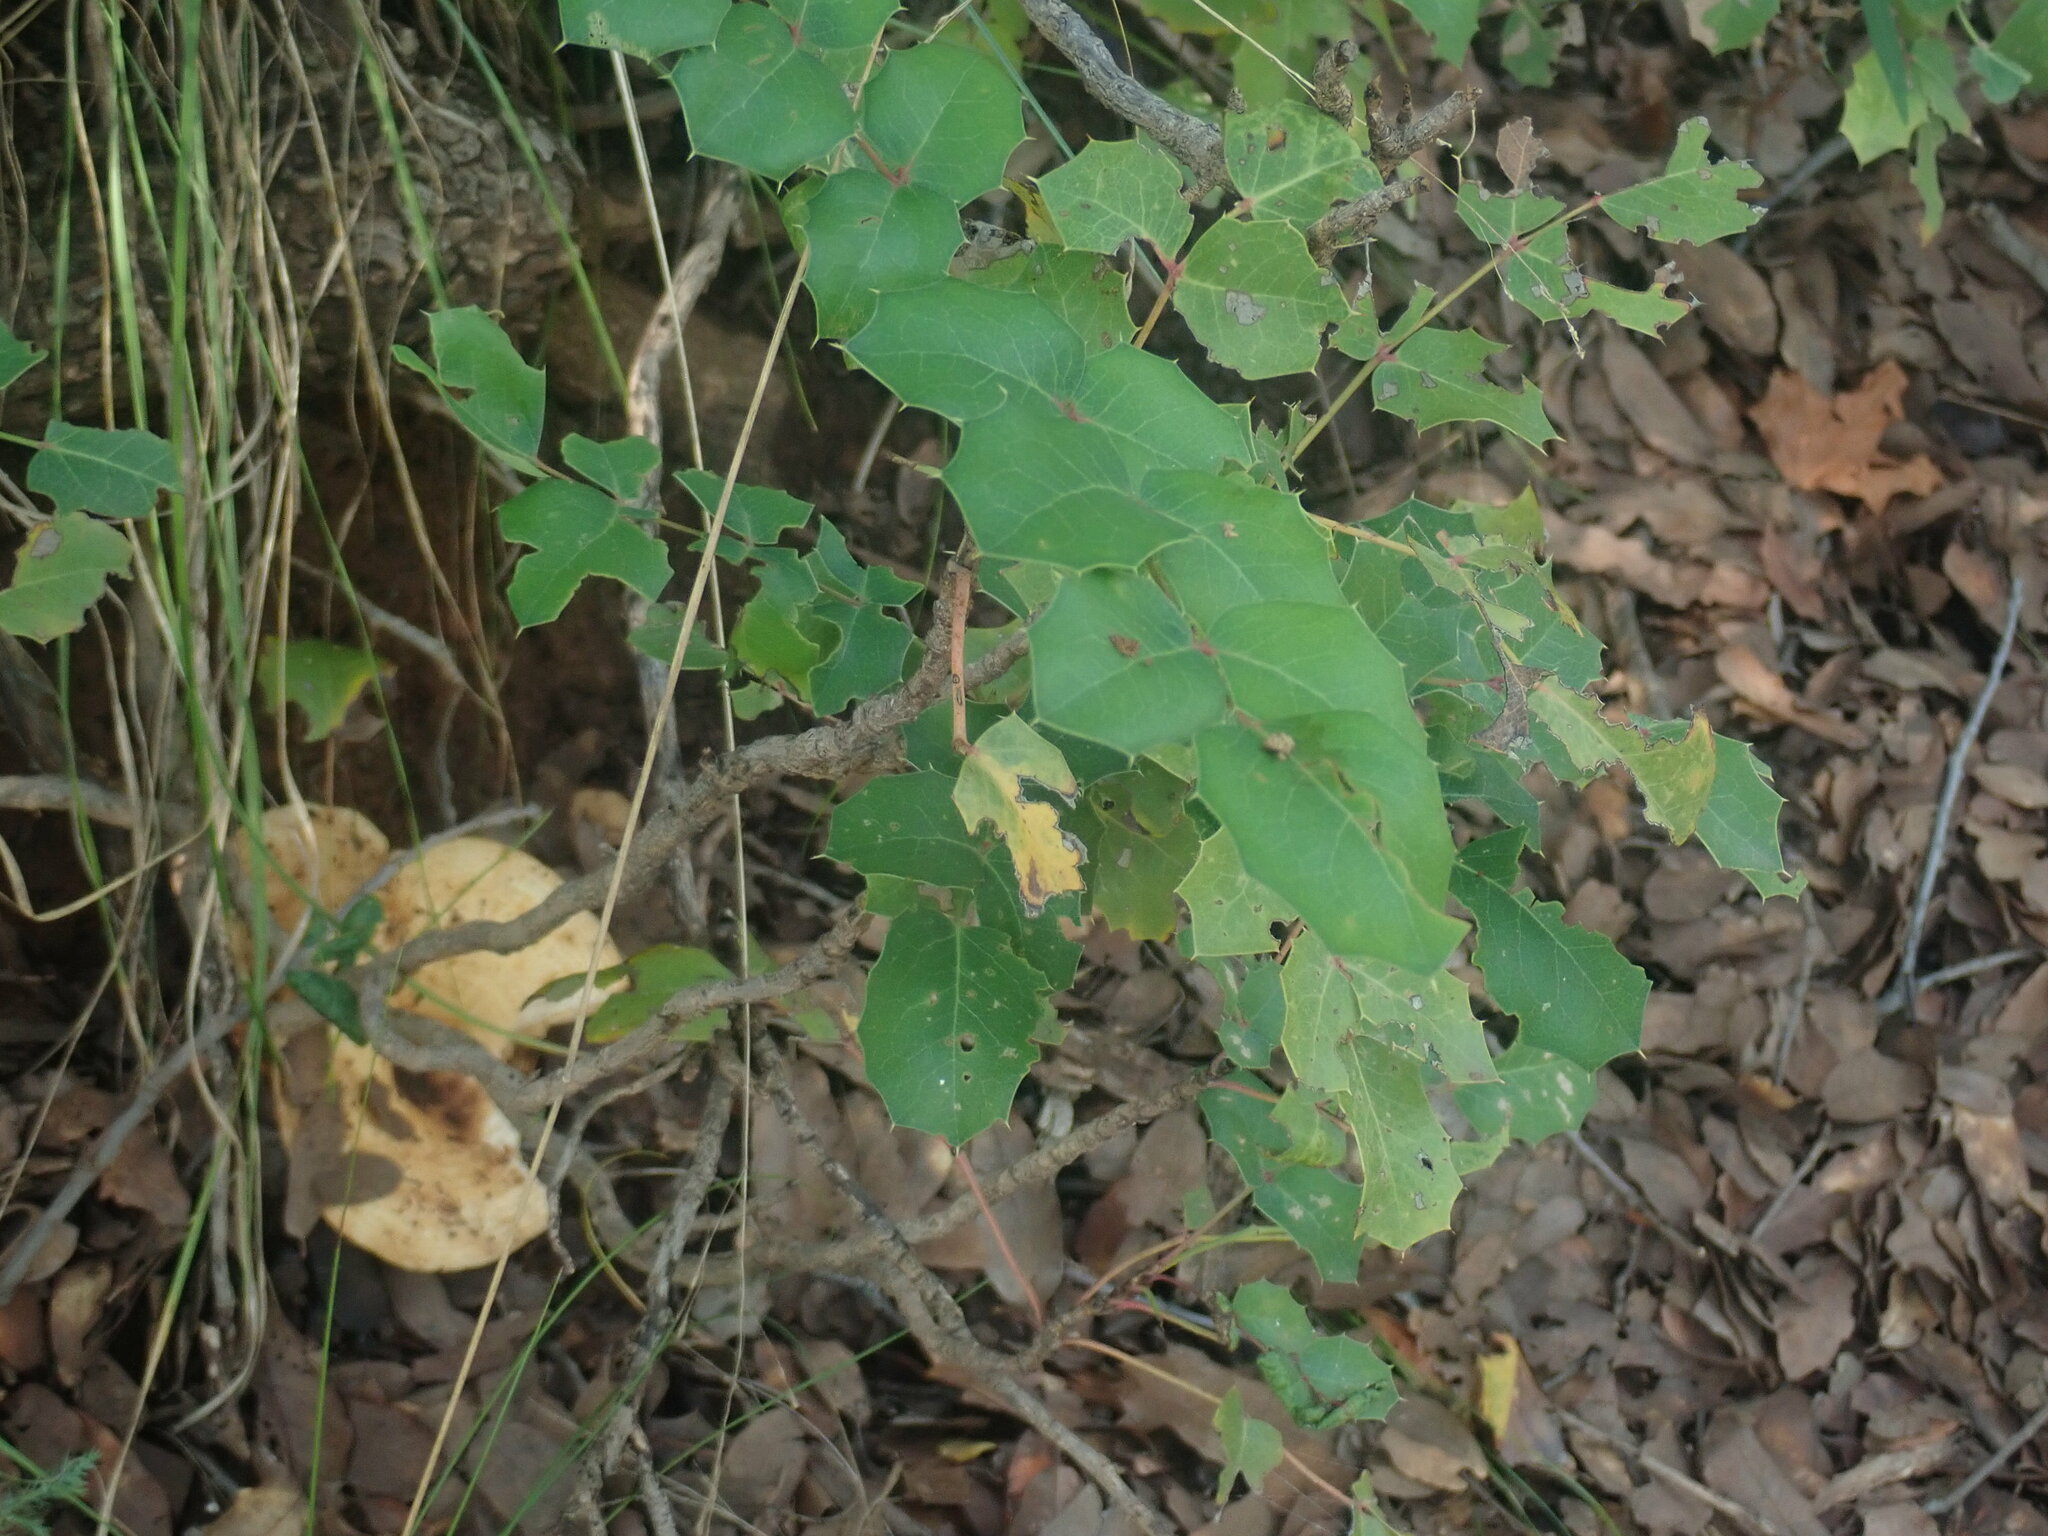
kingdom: Plantae
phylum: Tracheophyta
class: Magnoliopsida
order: Ranunculales
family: Berberidaceae
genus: Mahonia
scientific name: Mahonia wilcoxii
